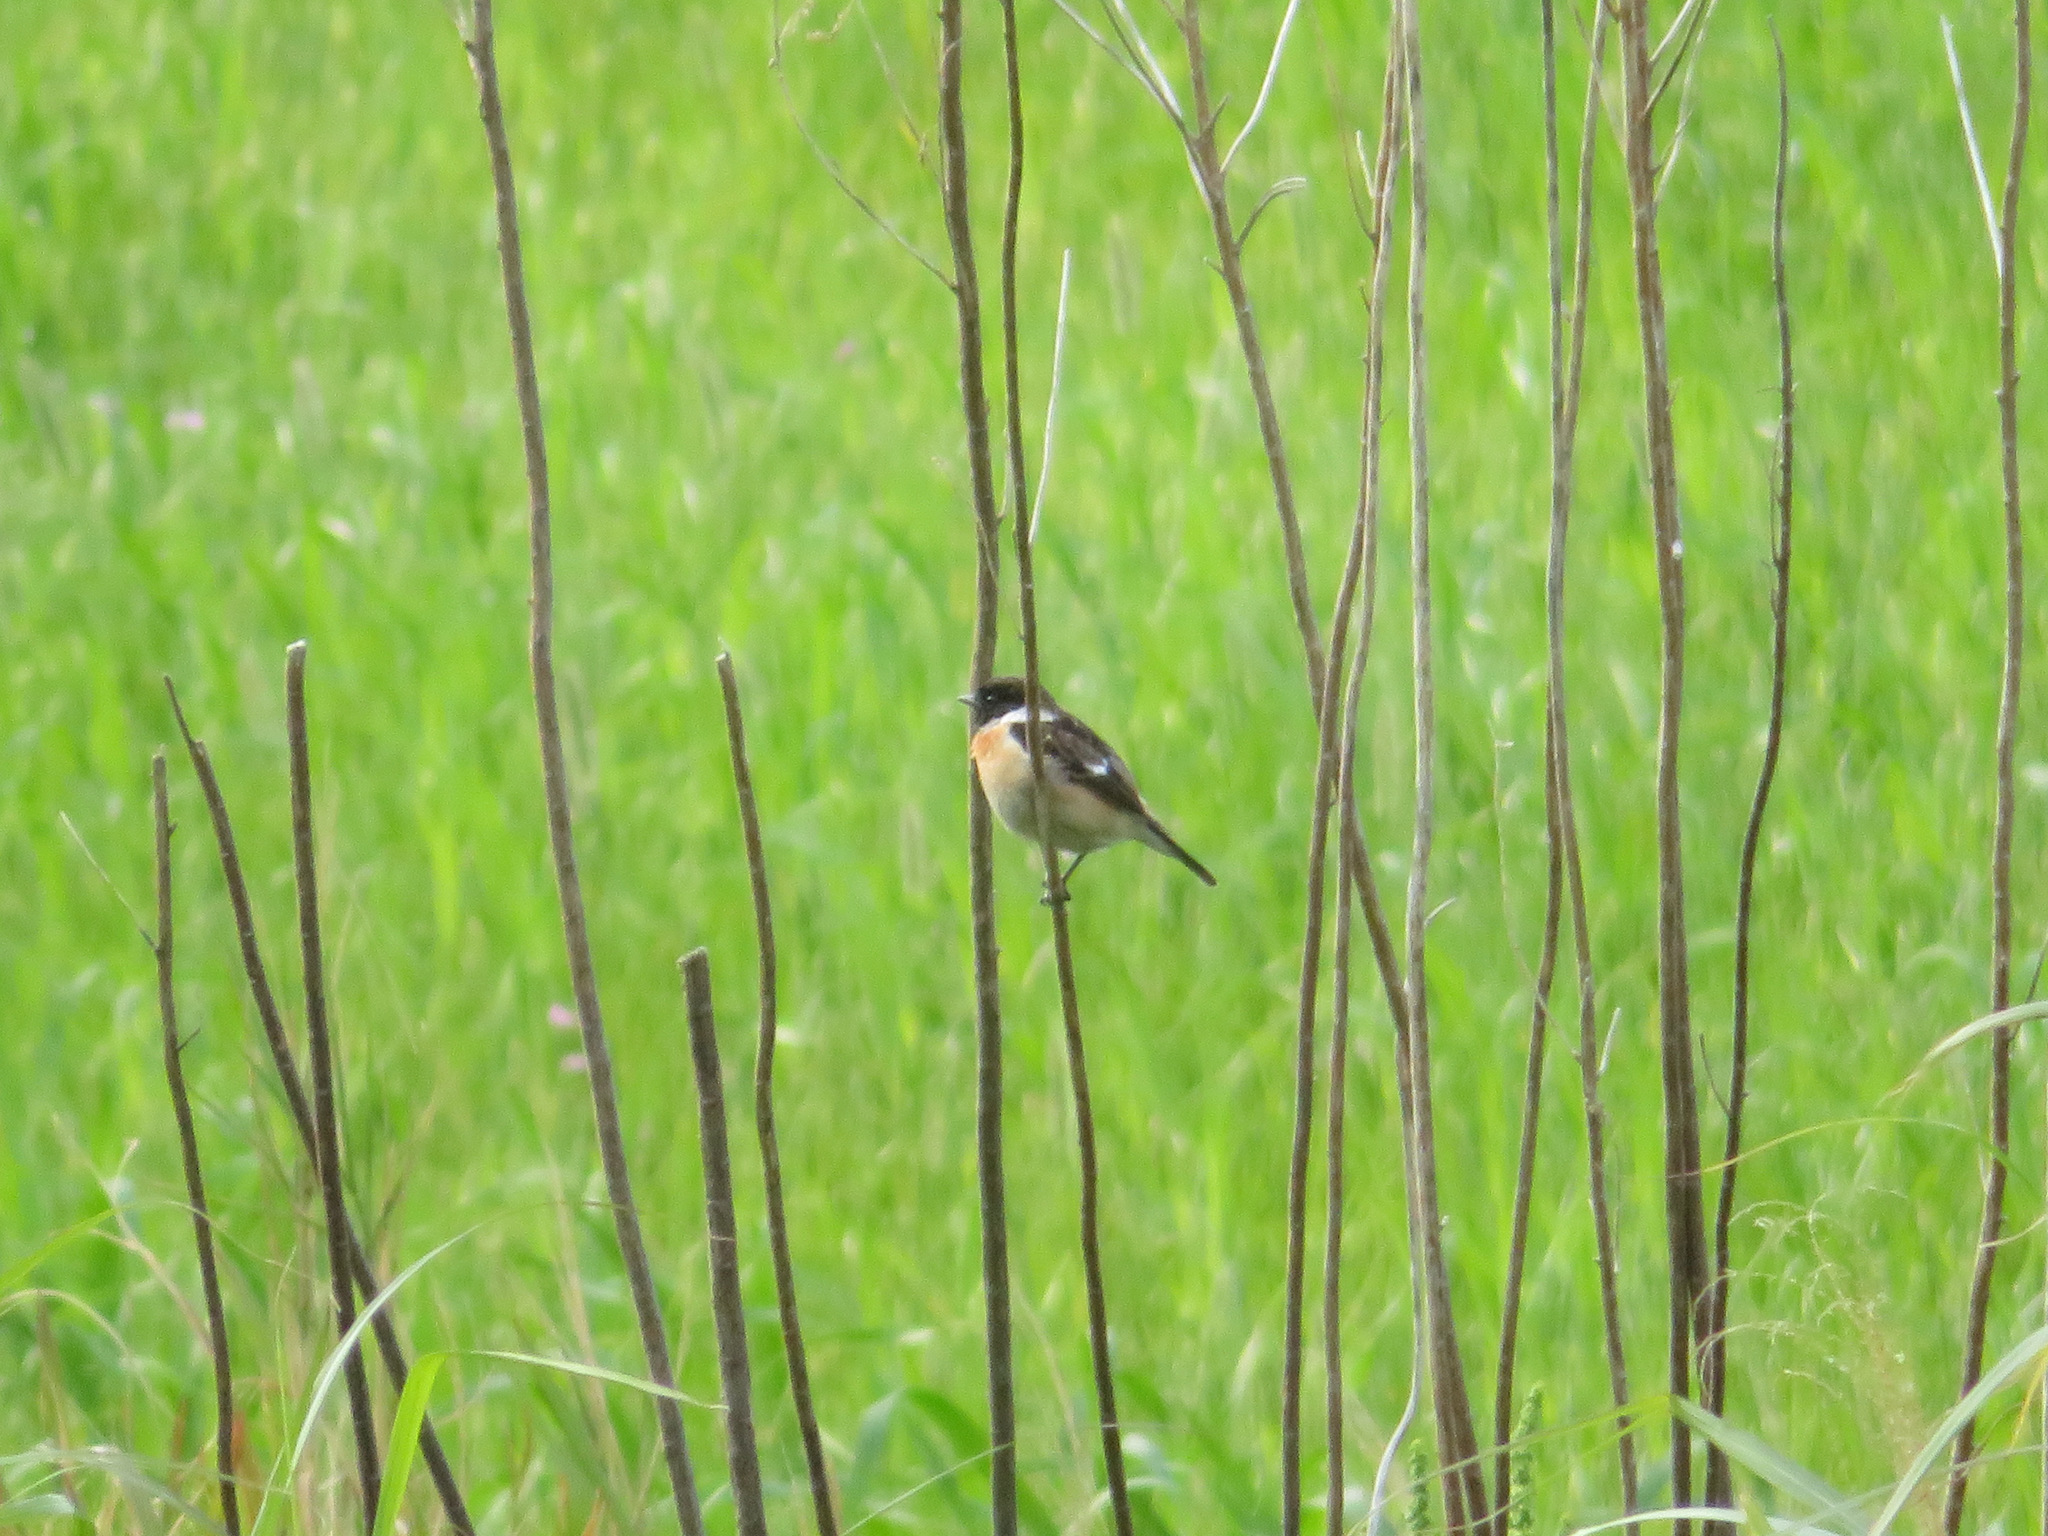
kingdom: Animalia
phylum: Chordata
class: Aves
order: Passeriformes
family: Muscicapidae
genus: Saxicola
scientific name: Saxicola stejnegeri
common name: Stejneger's stonechat
